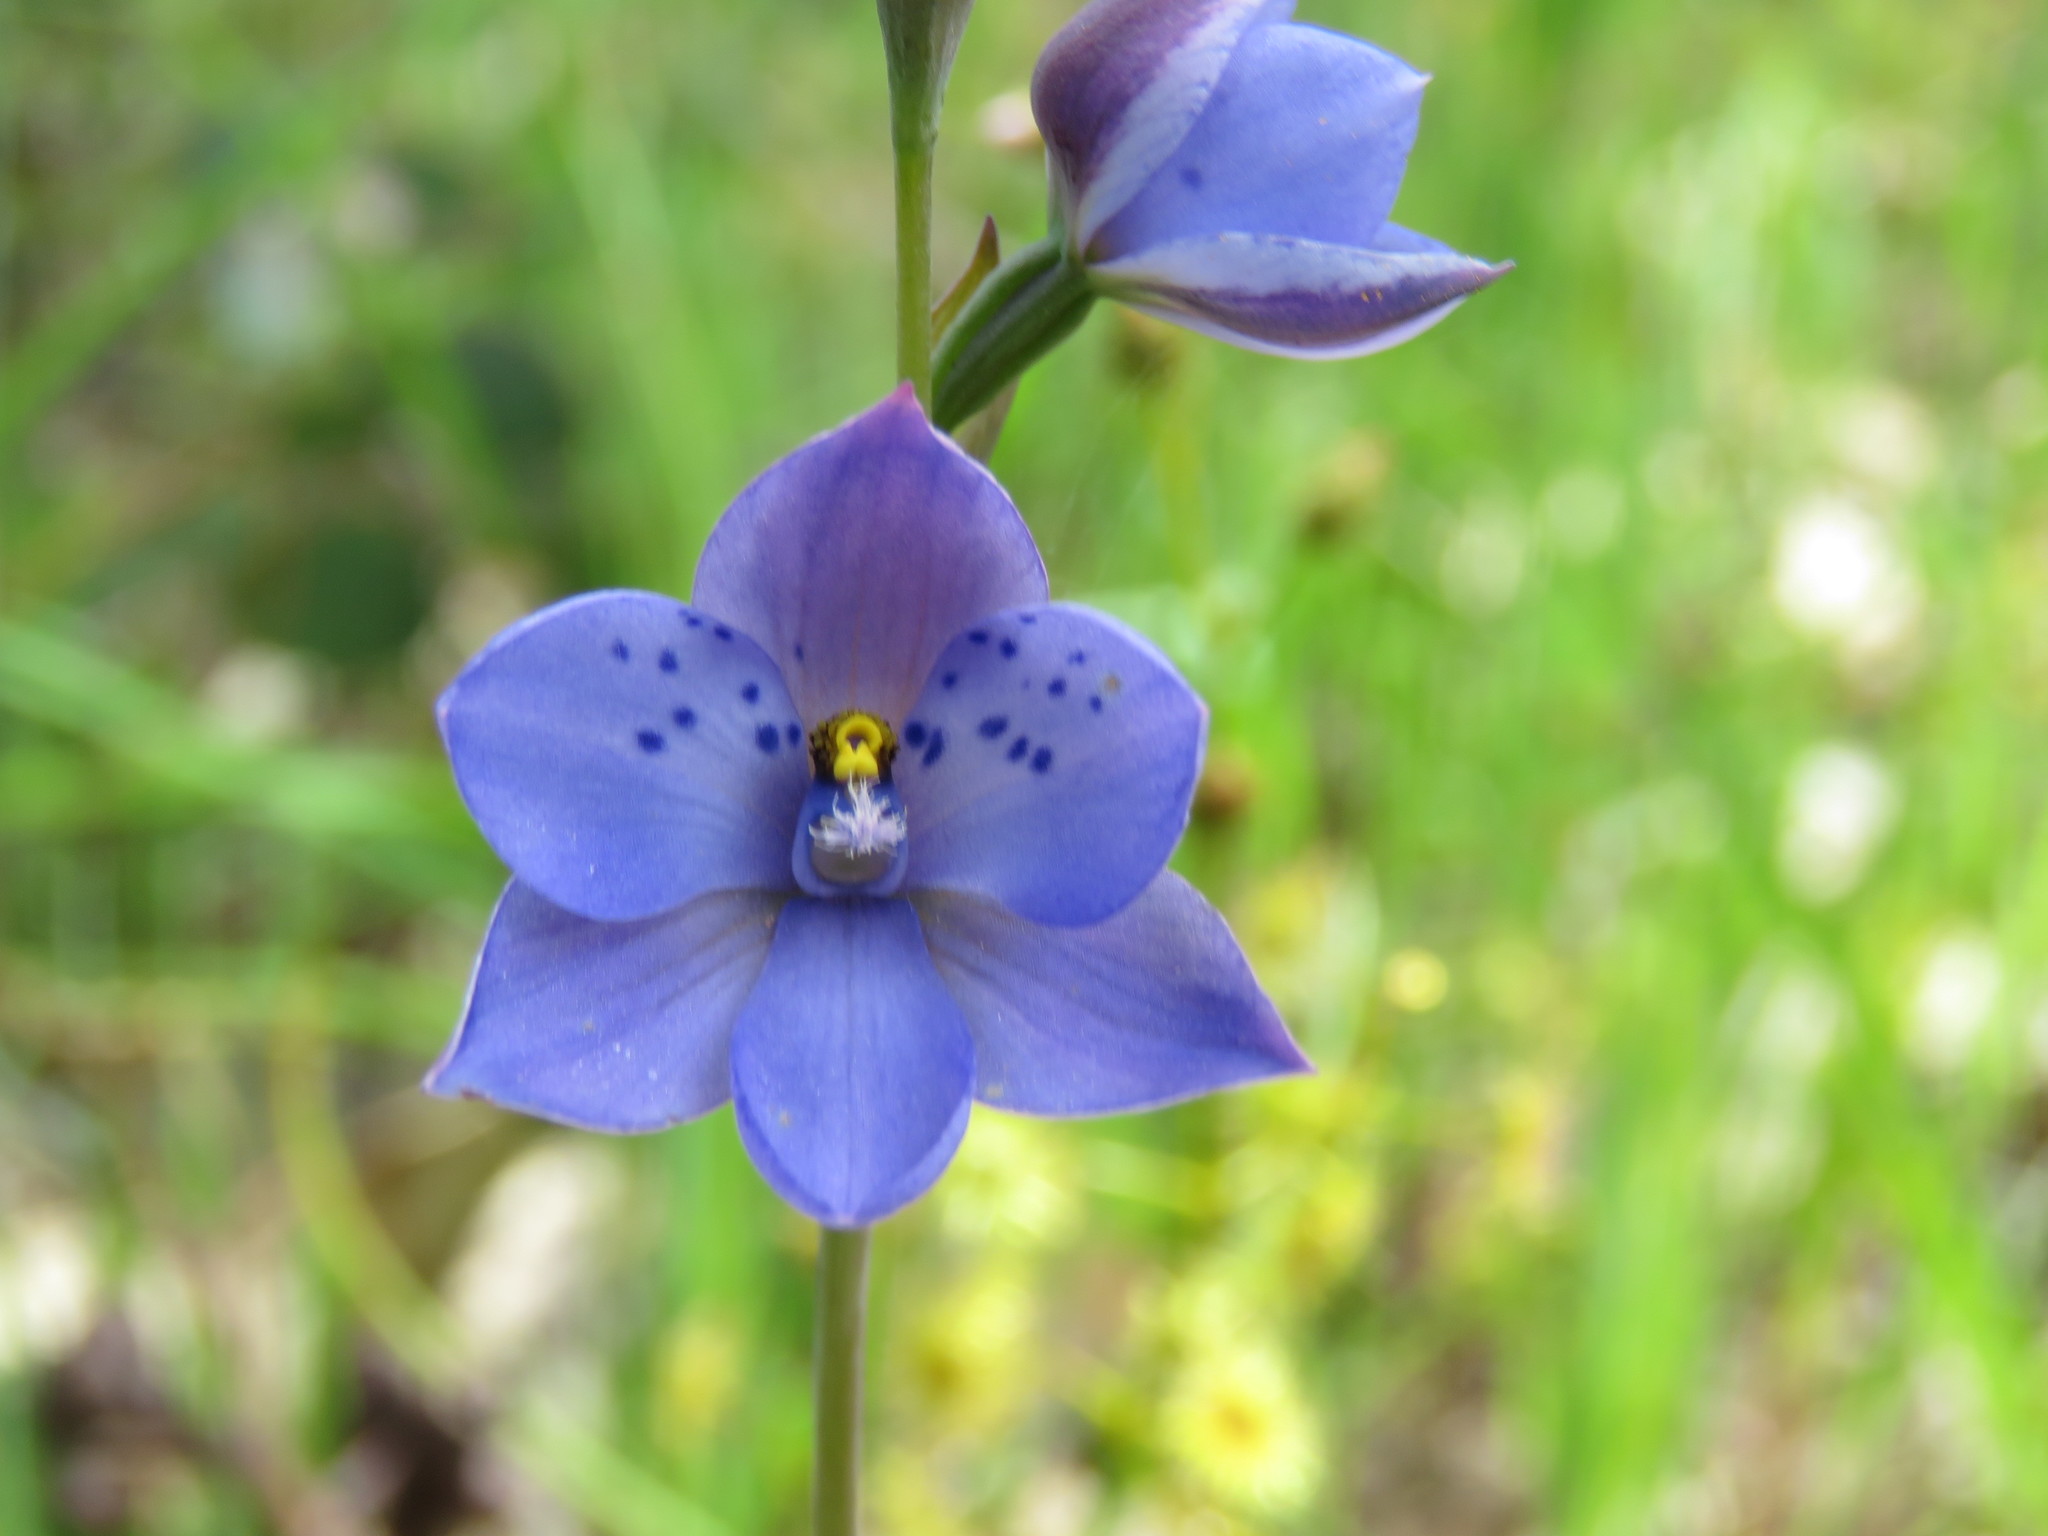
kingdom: Plantae
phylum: Tracheophyta
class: Liliopsida
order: Asparagales
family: Orchidaceae
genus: Thelymitra
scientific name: Thelymitra ixioides
